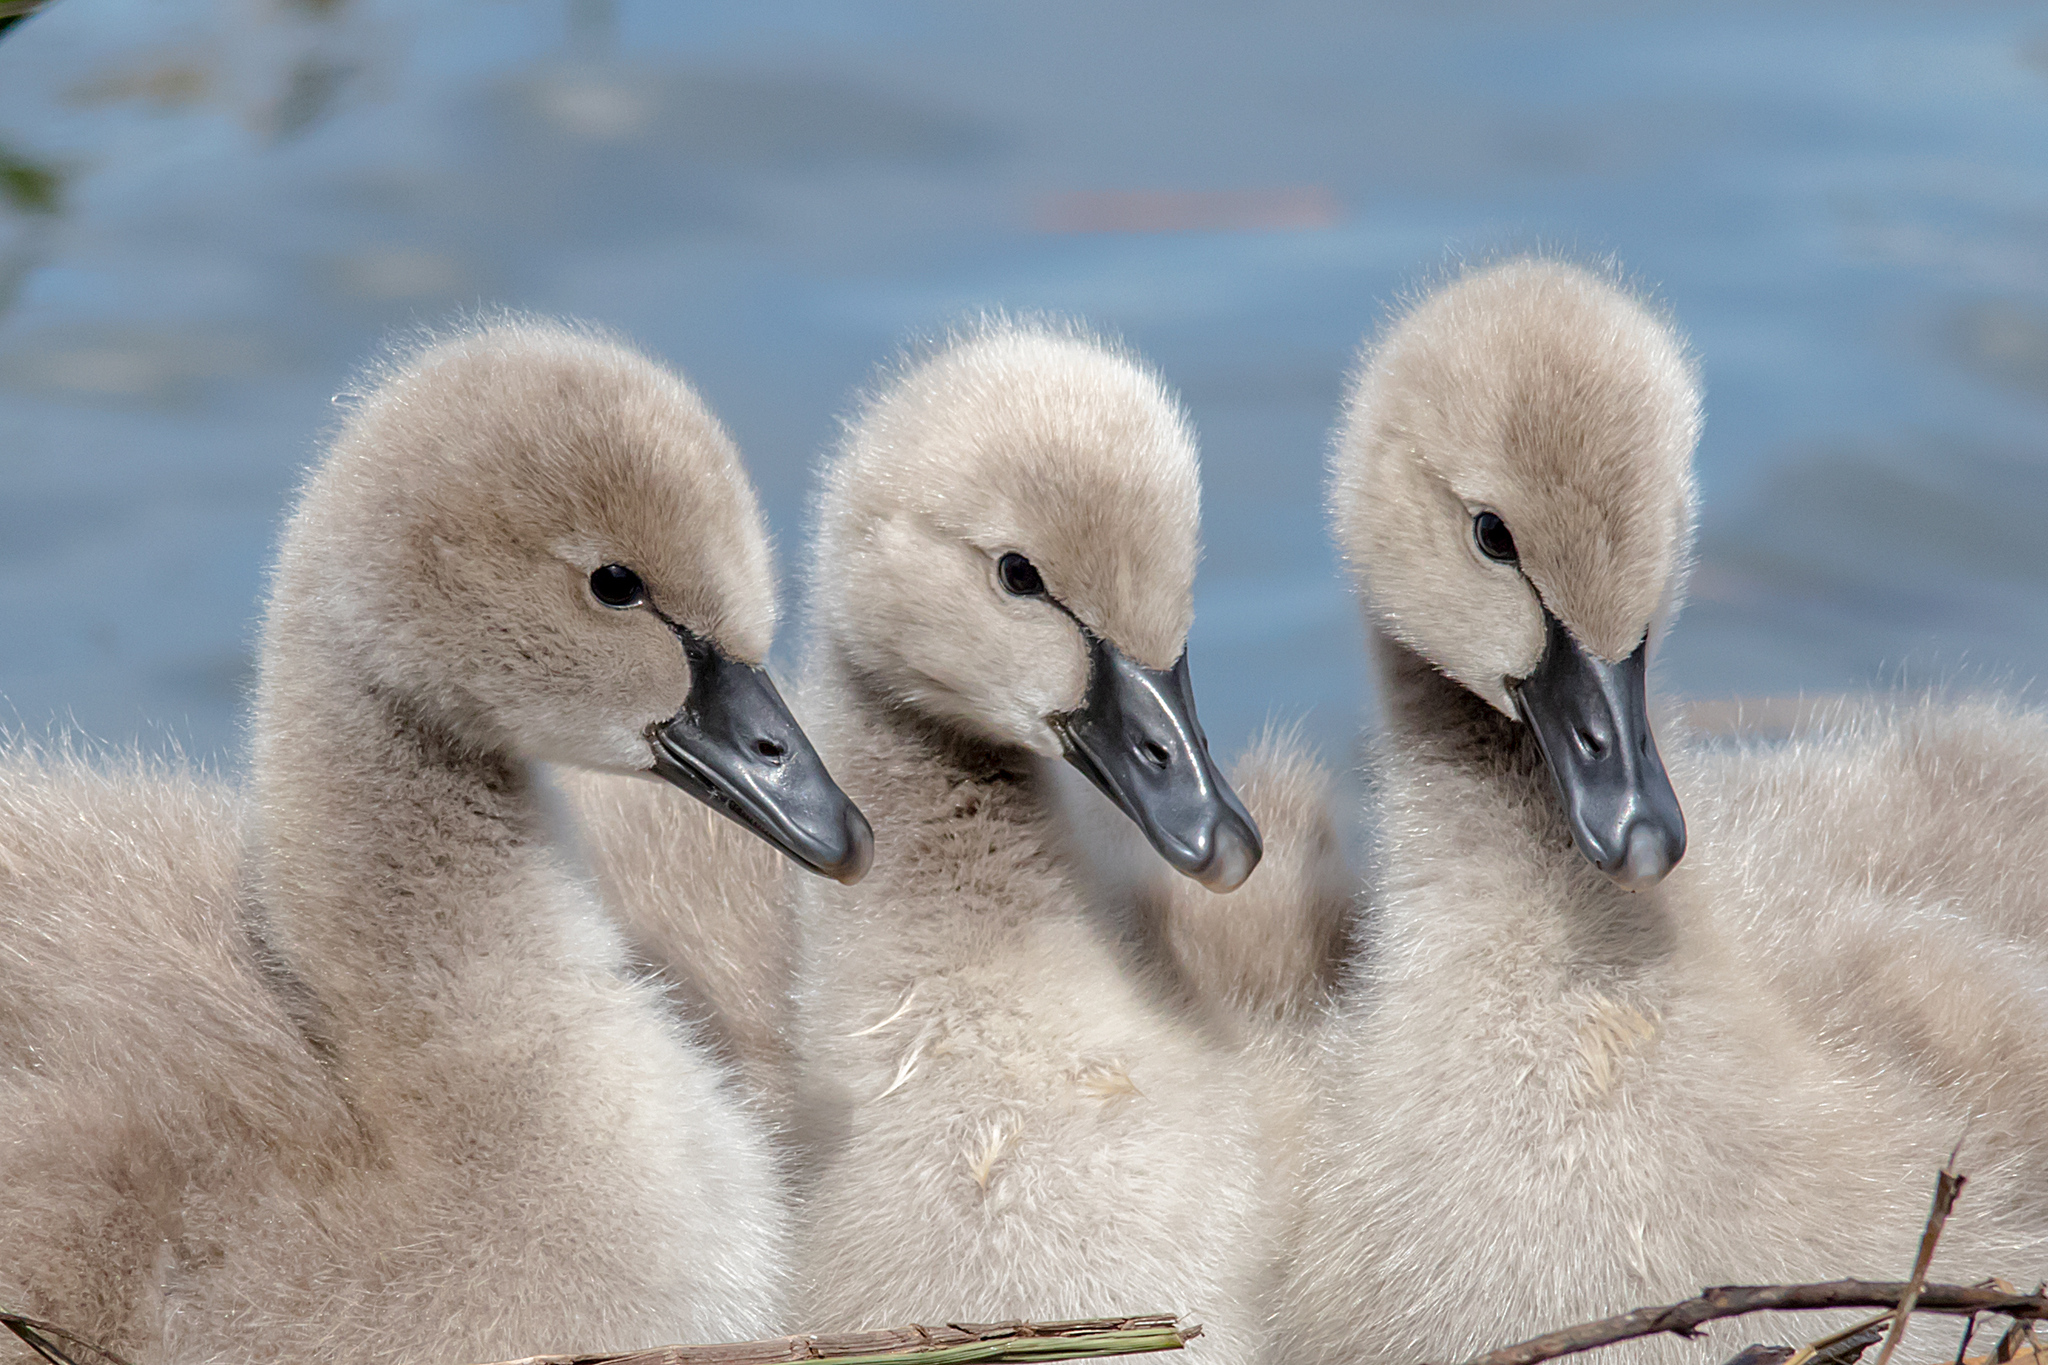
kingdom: Animalia
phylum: Chordata
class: Aves
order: Anseriformes
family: Anatidae
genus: Cygnus
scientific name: Cygnus atratus
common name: Black swan
